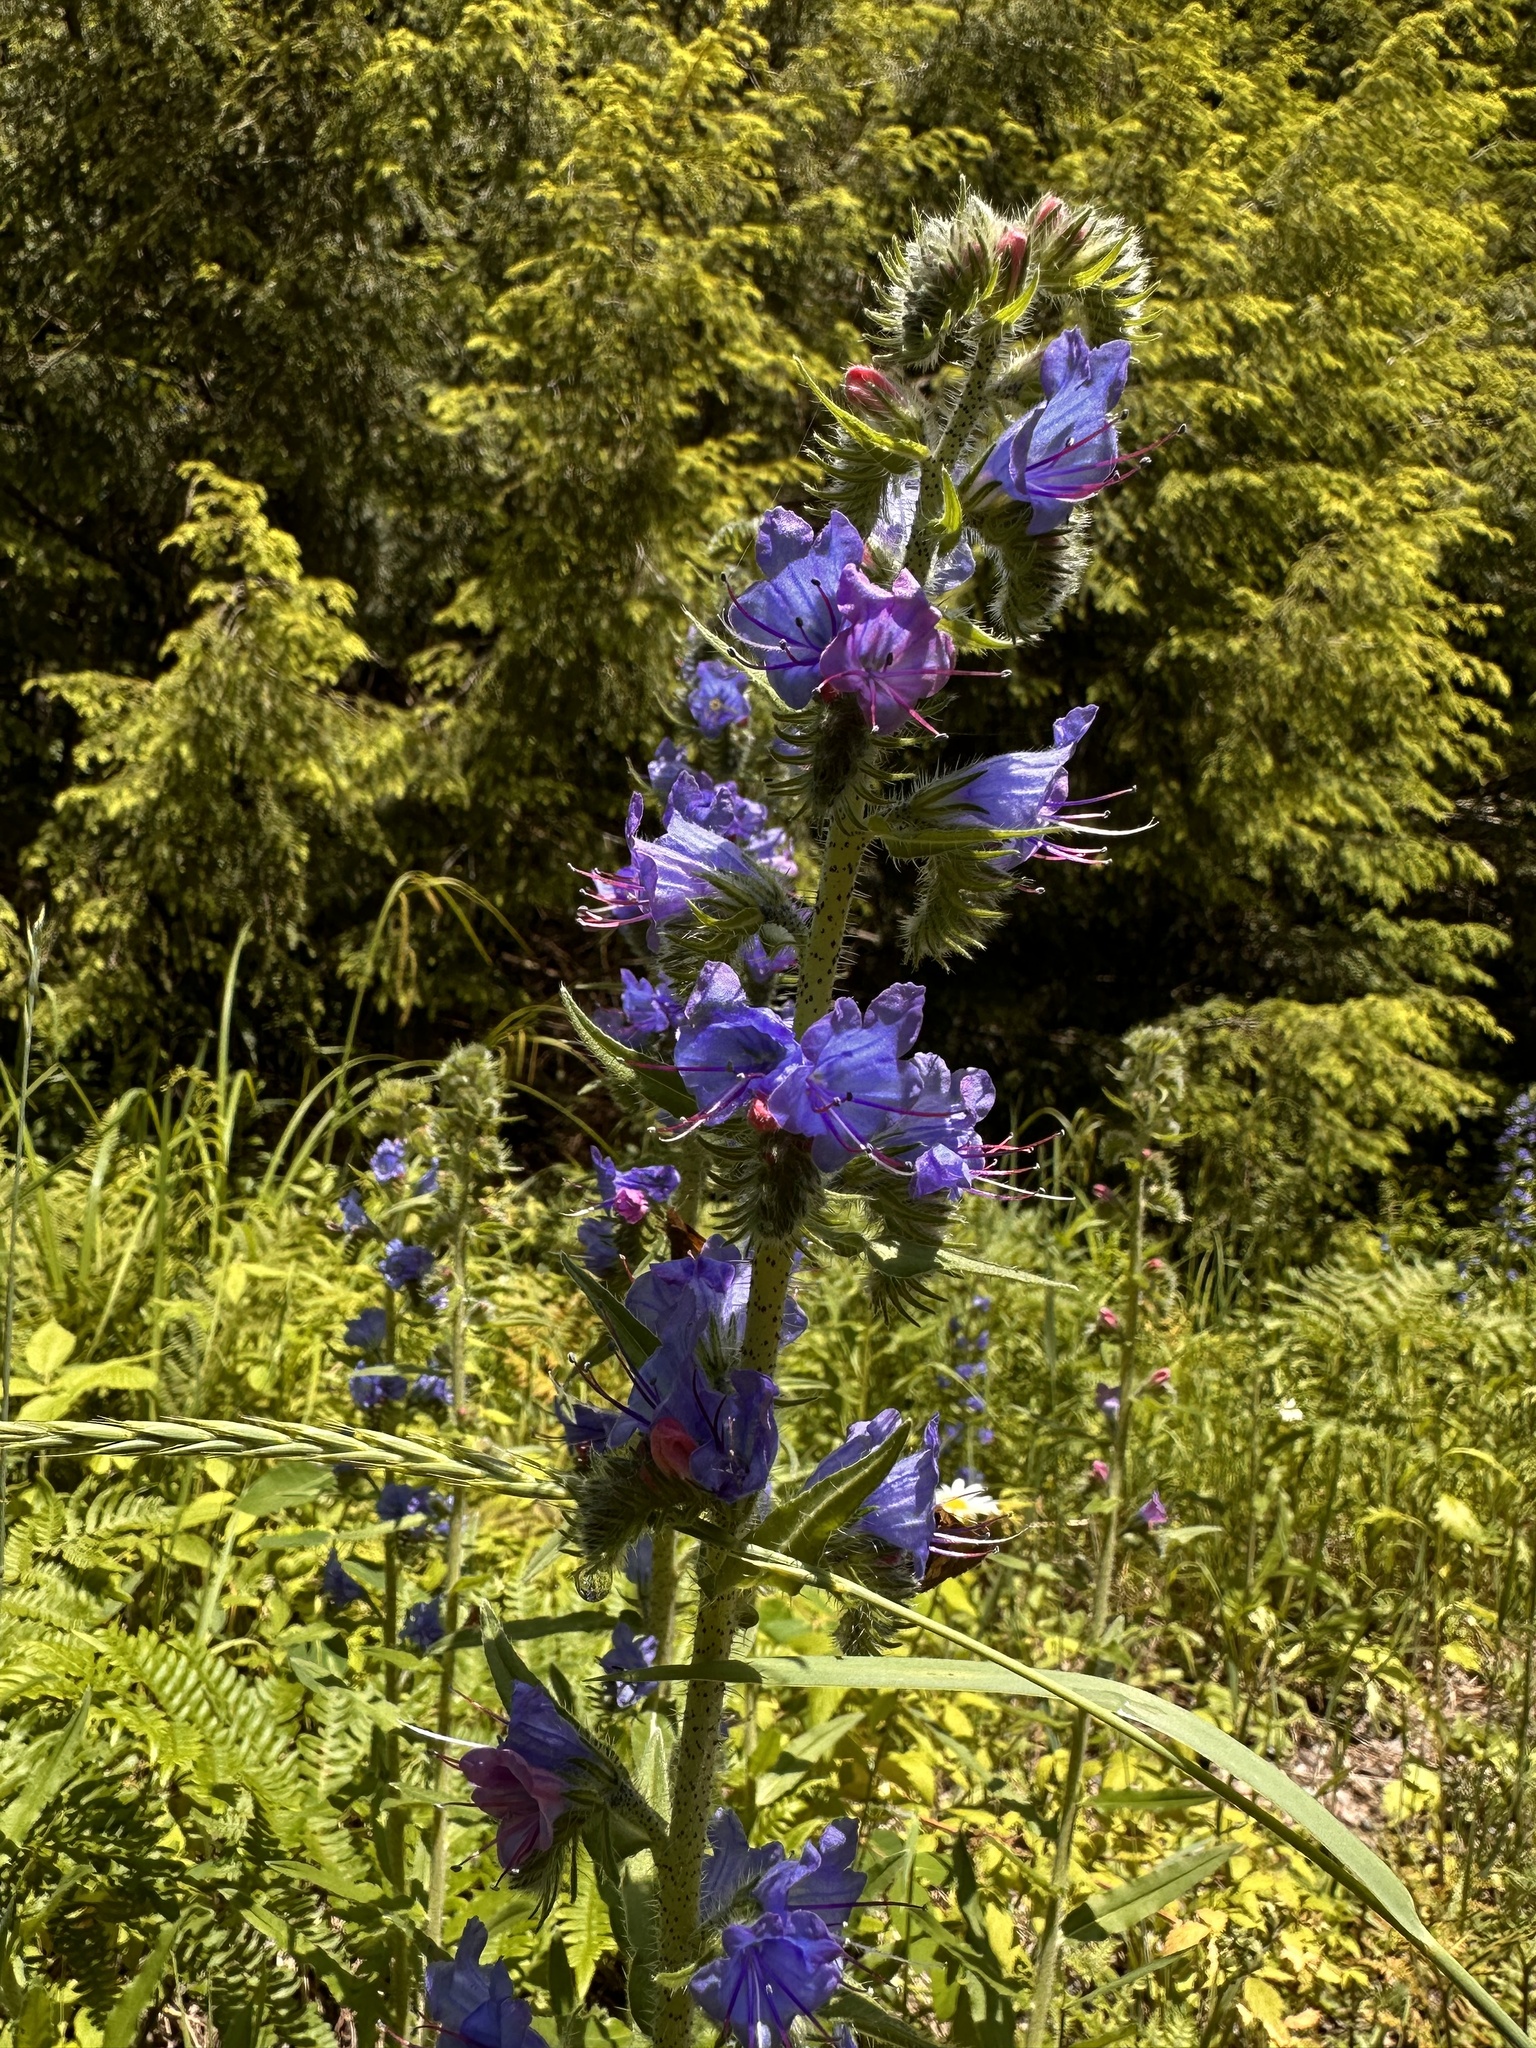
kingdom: Plantae
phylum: Tracheophyta
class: Magnoliopsida
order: Boraginales
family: Boraginaceae
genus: Echium
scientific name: Echium vulgare
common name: Common viper's bugloss
